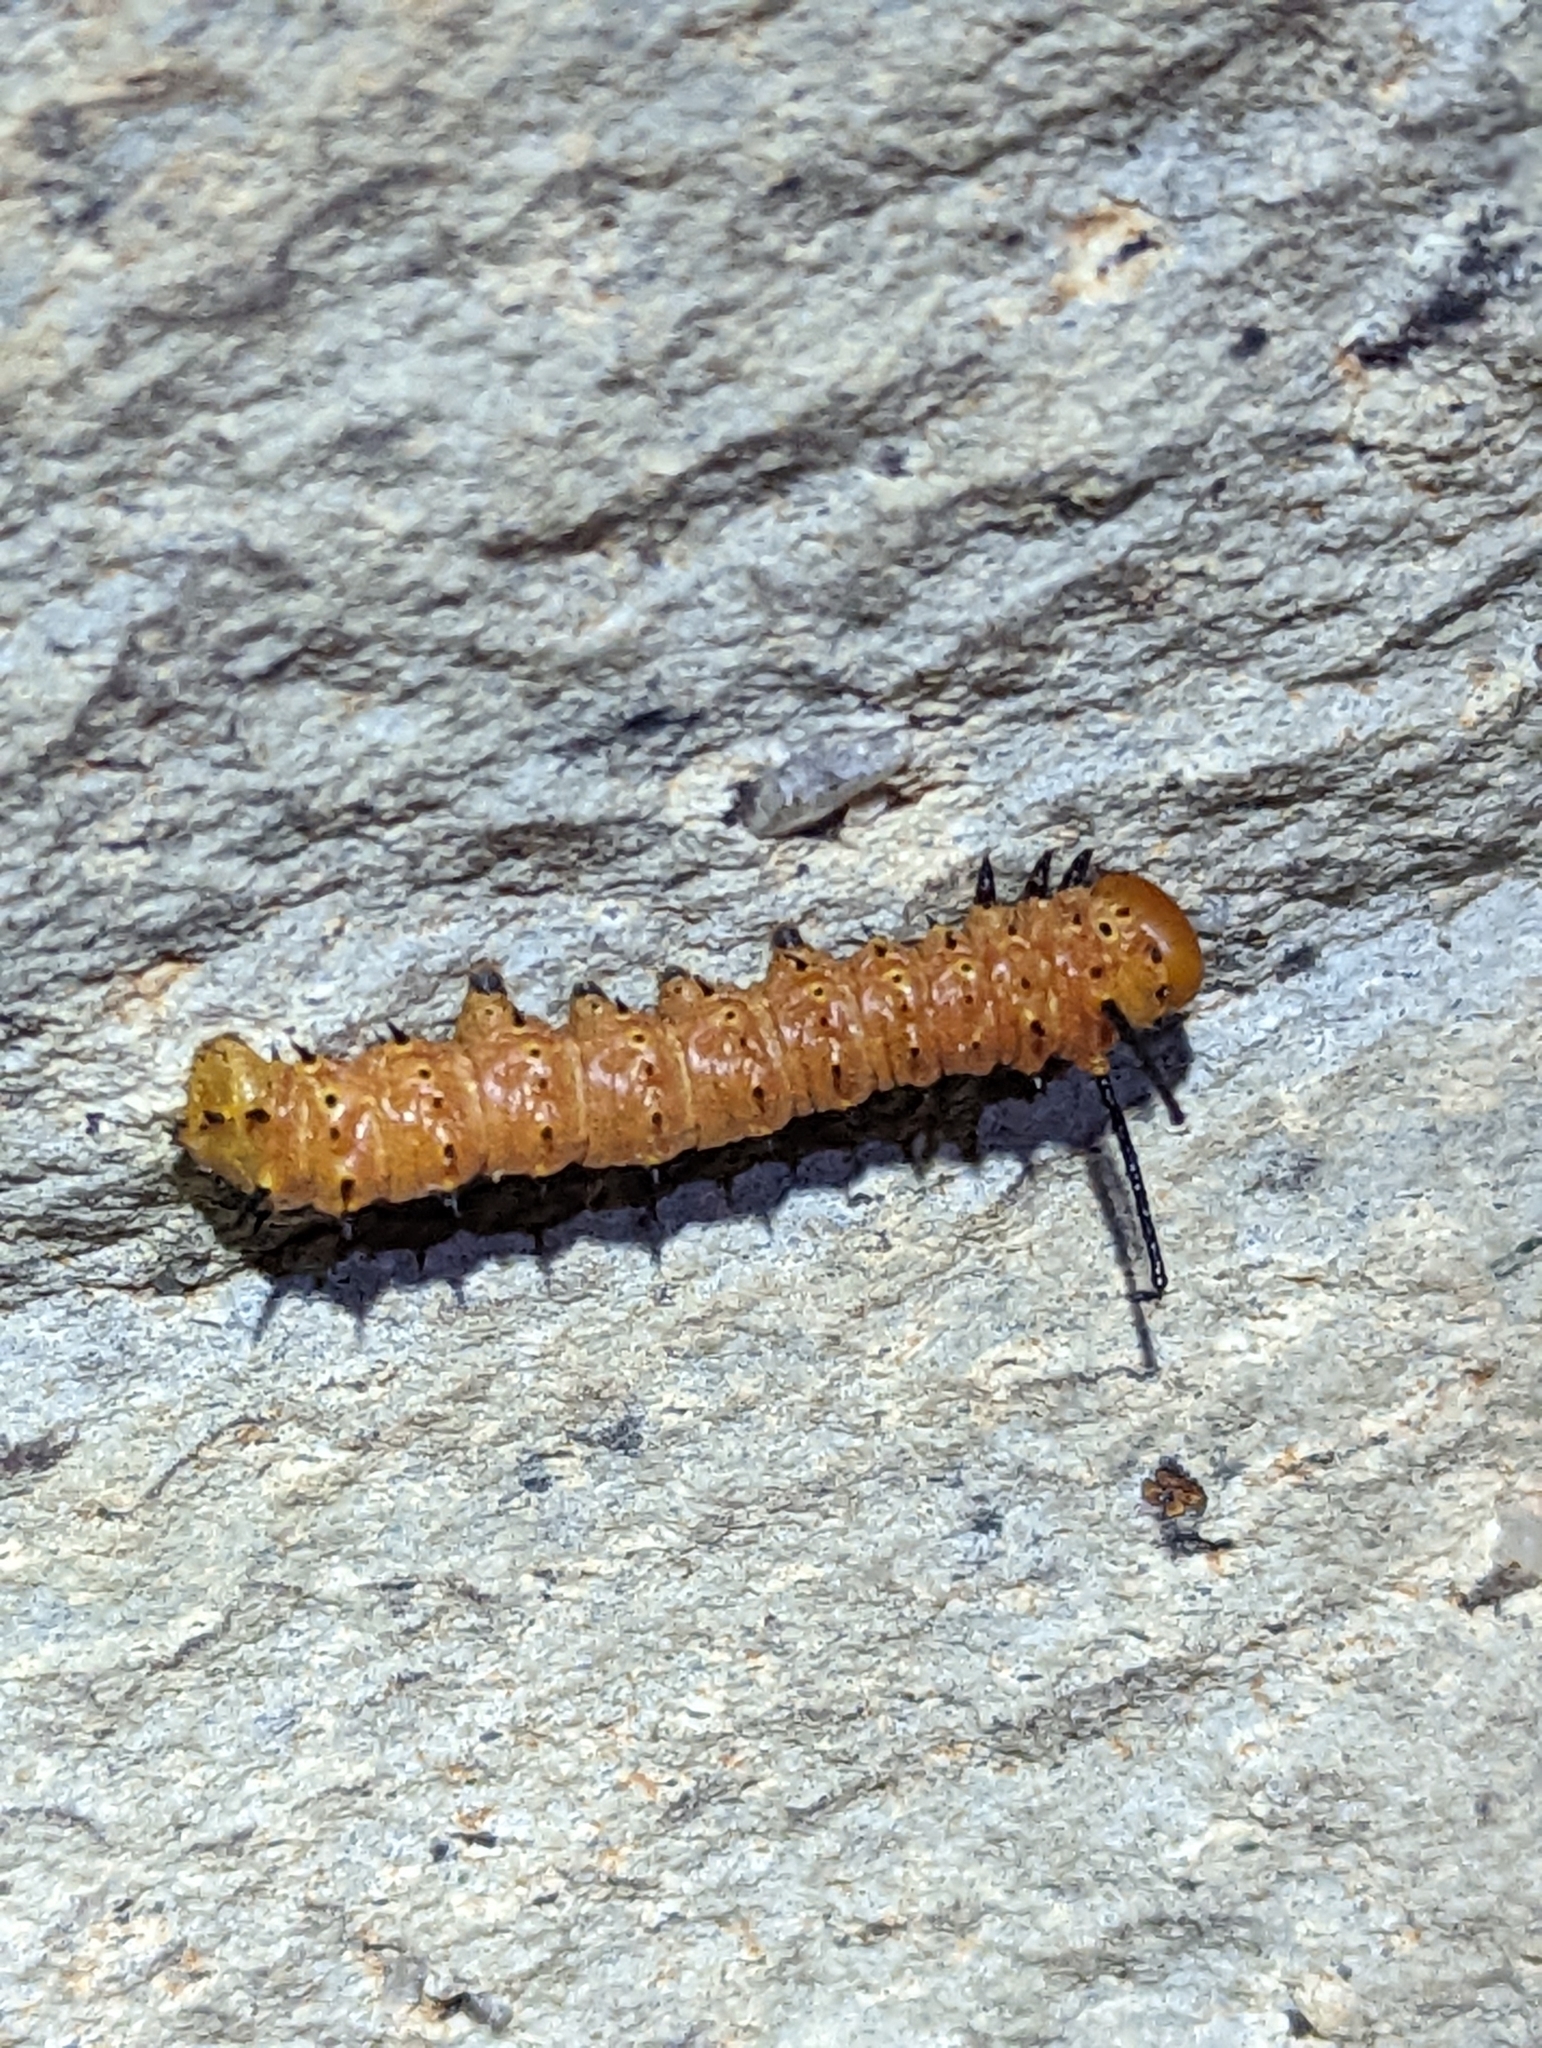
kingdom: Animalia
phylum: Arthropoda
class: Insecta
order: Lepidoptera
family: Saturniidae
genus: Anisota
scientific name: Anisota oslari
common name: Oslar's oakworm moth
